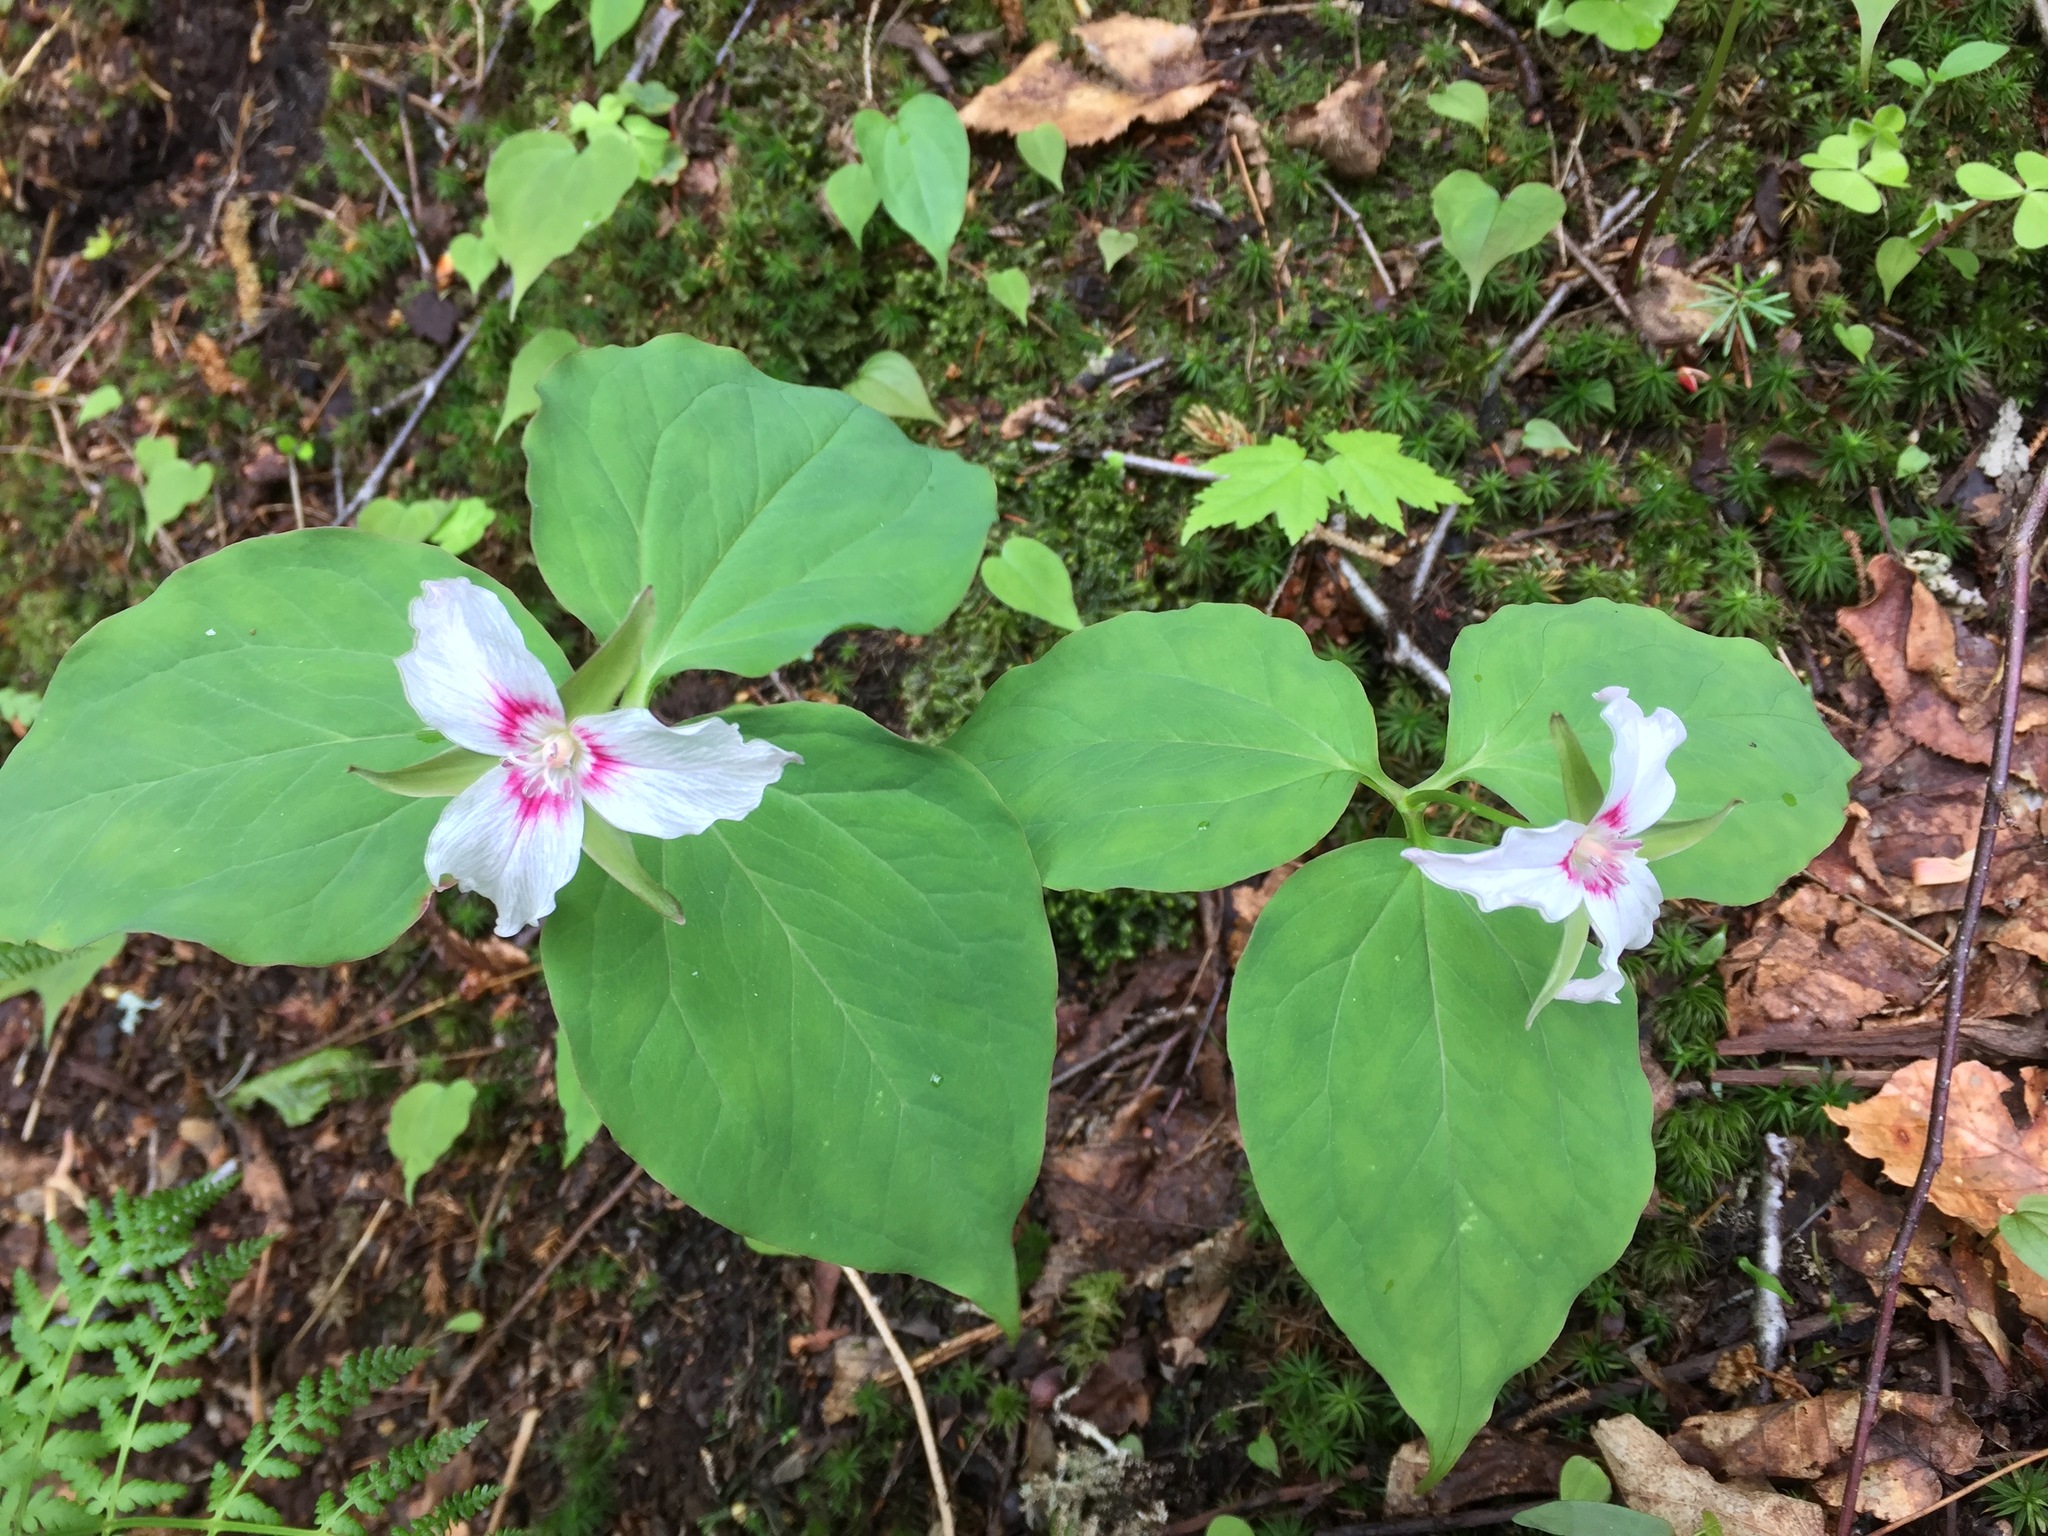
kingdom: Plantae
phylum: Tracheophyta
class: Liliopsida
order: Liliales
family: Melanthiaceae
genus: Trillium
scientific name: Trillium undulatum
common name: Paint trillium
